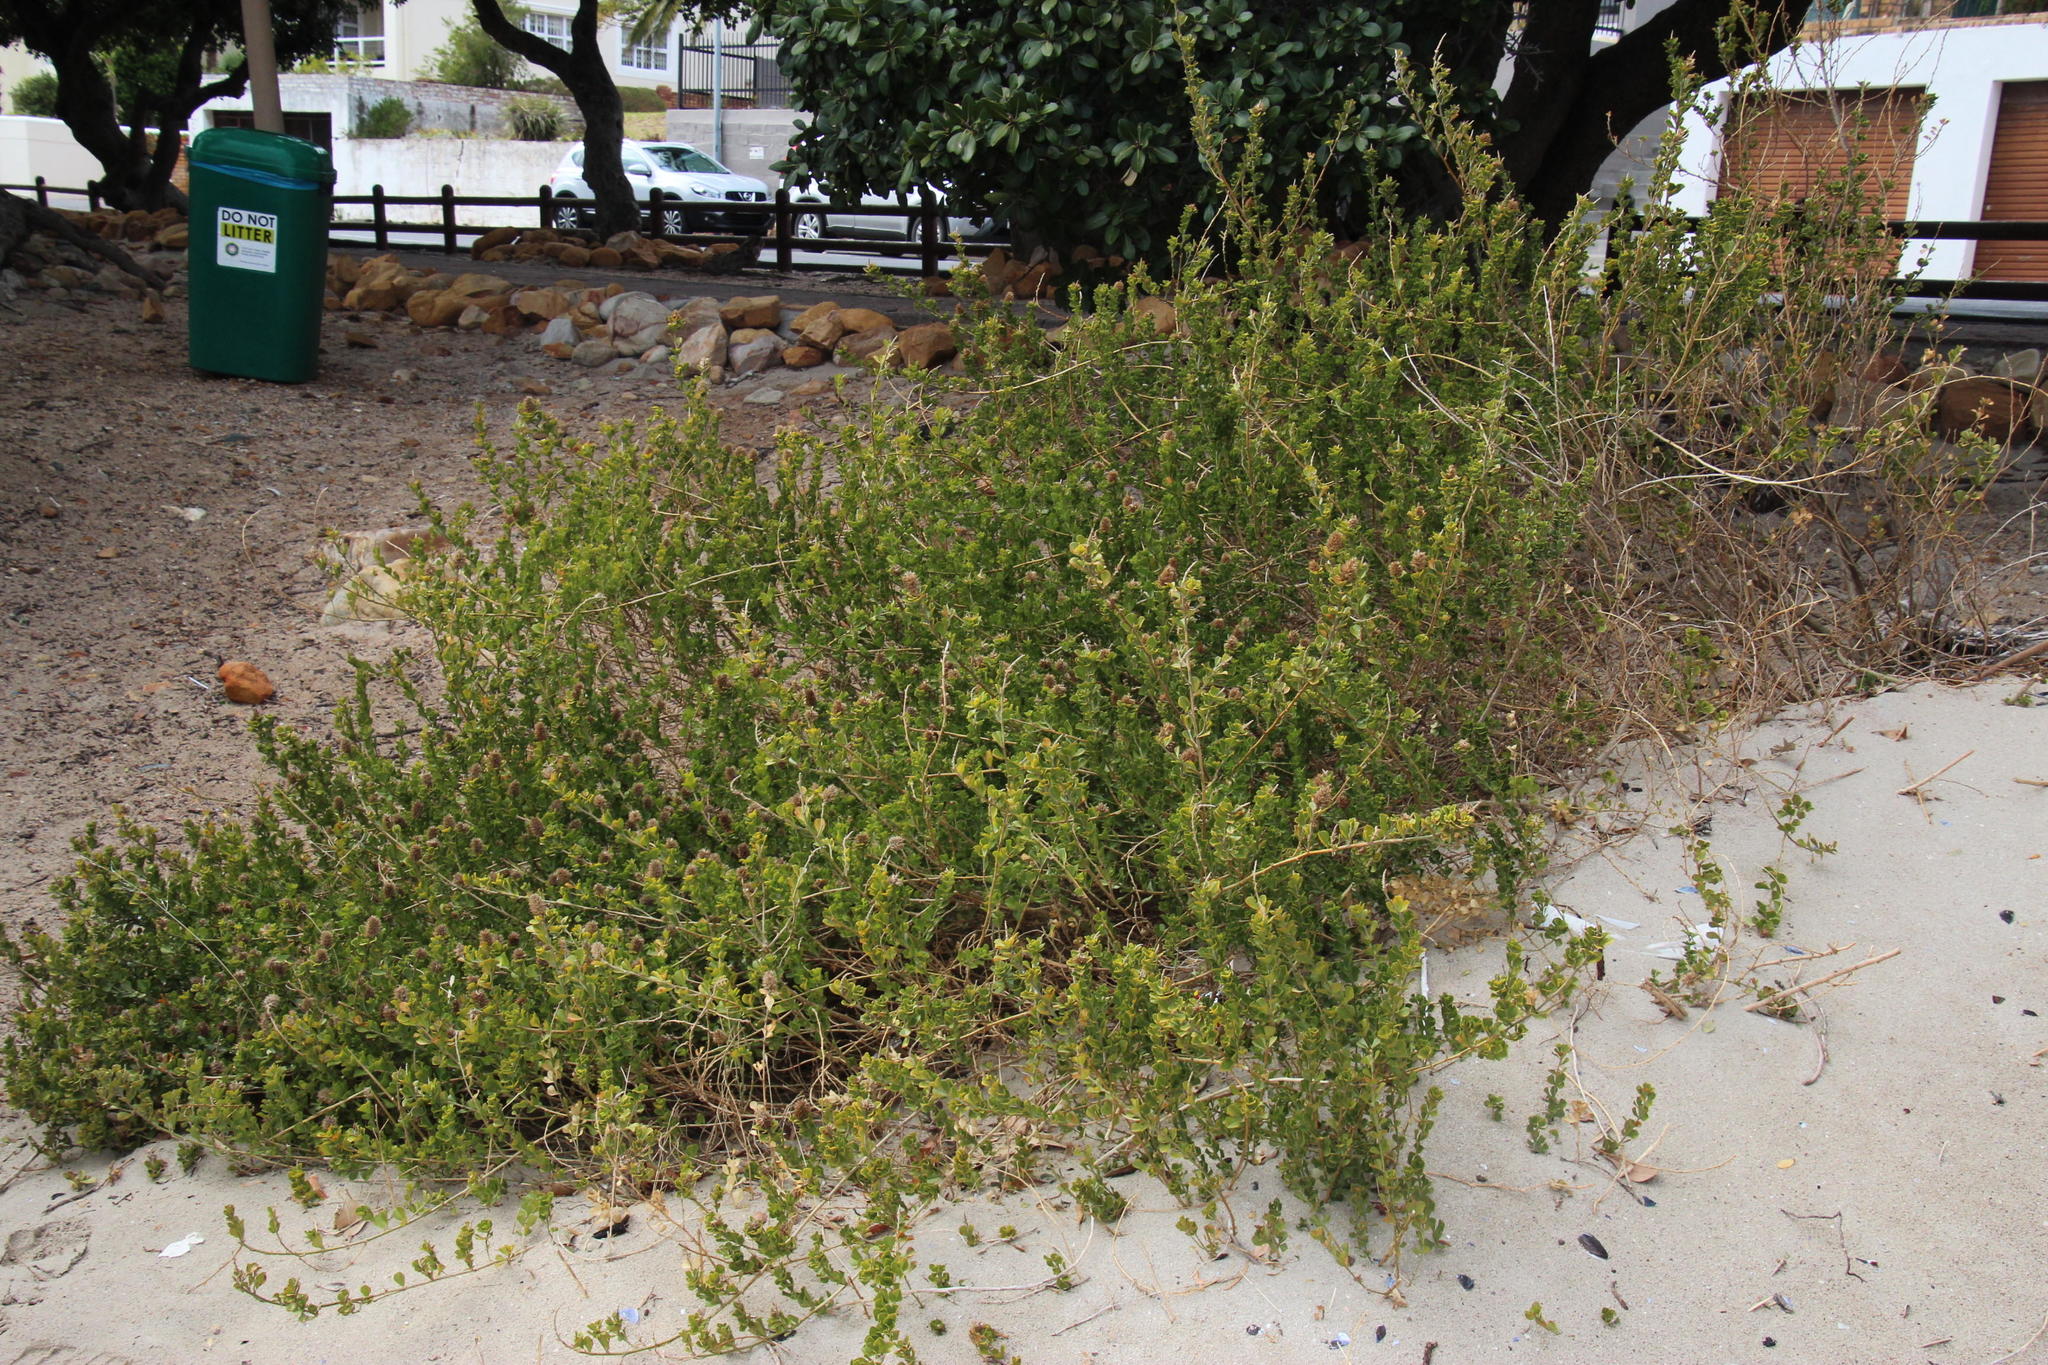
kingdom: Plantae
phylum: Tracheophyta
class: Magnoliopsida
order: Fabales
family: Fabaceae
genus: Psoralea
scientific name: Psoralea bracteolata
